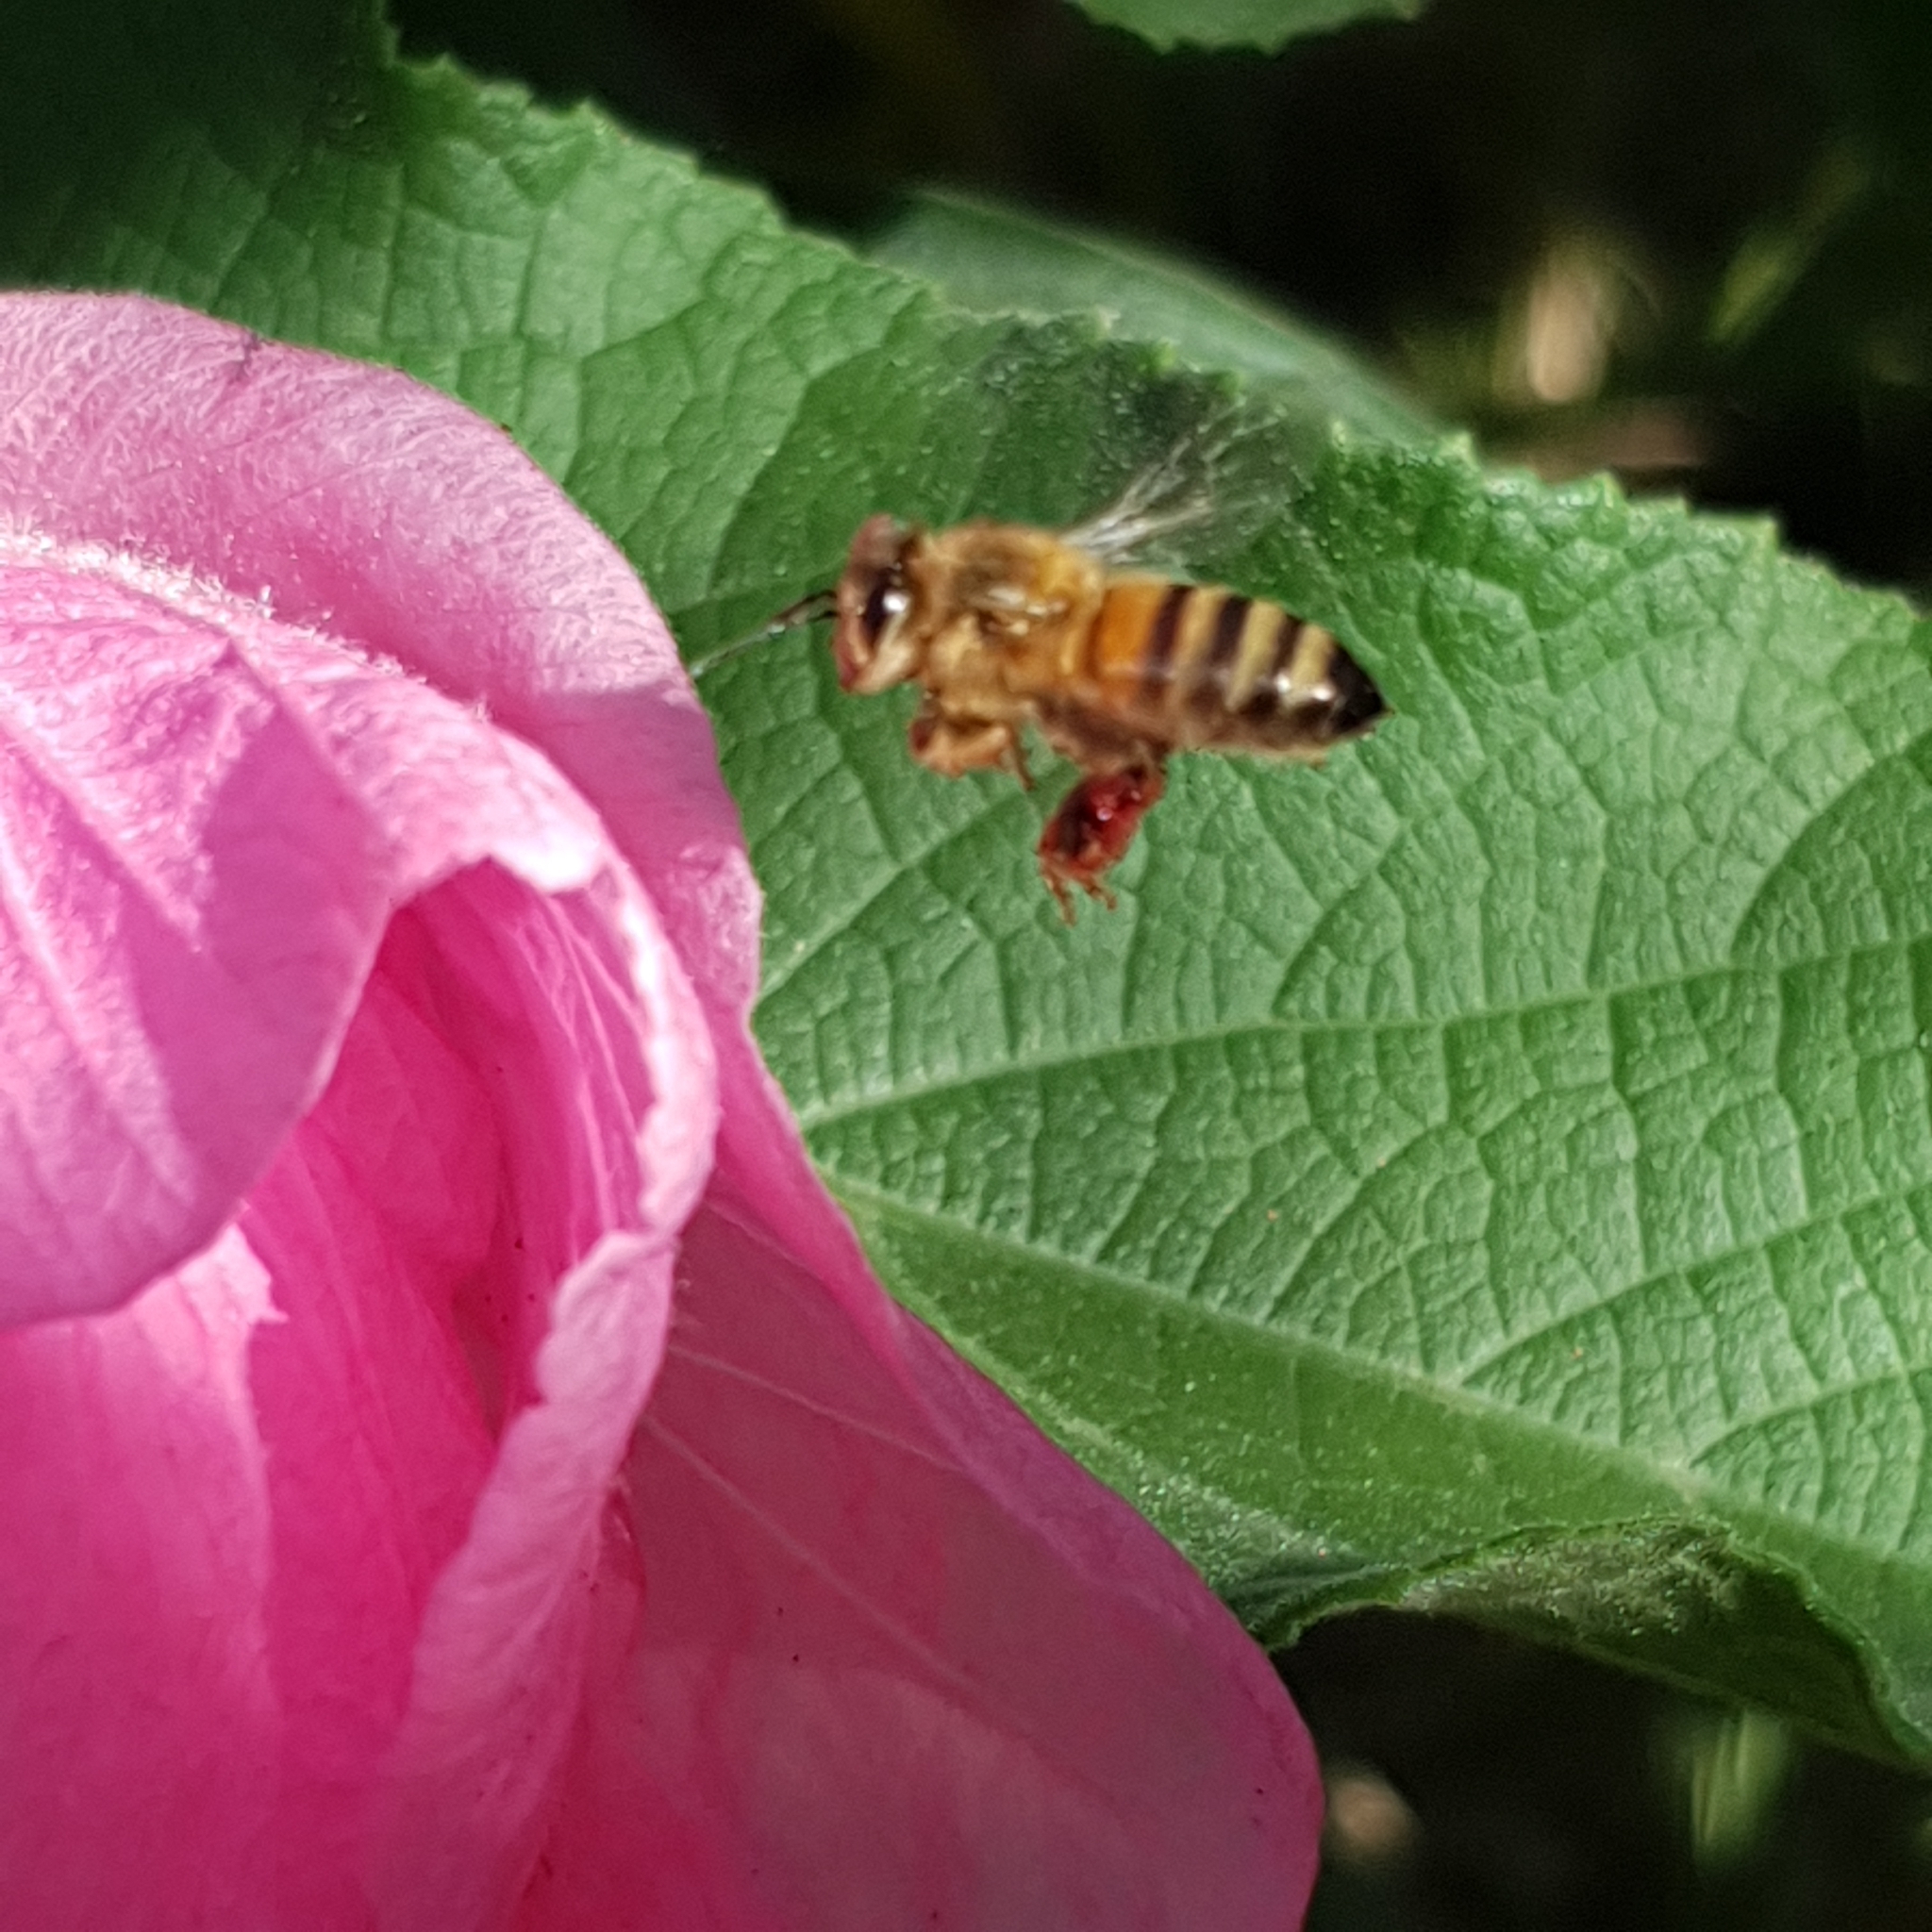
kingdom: Animalia
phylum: Arthropoda
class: Insecta
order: Hymenoptera
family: Apidae
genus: Apis
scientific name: Apis mellifera
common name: Honey bee
